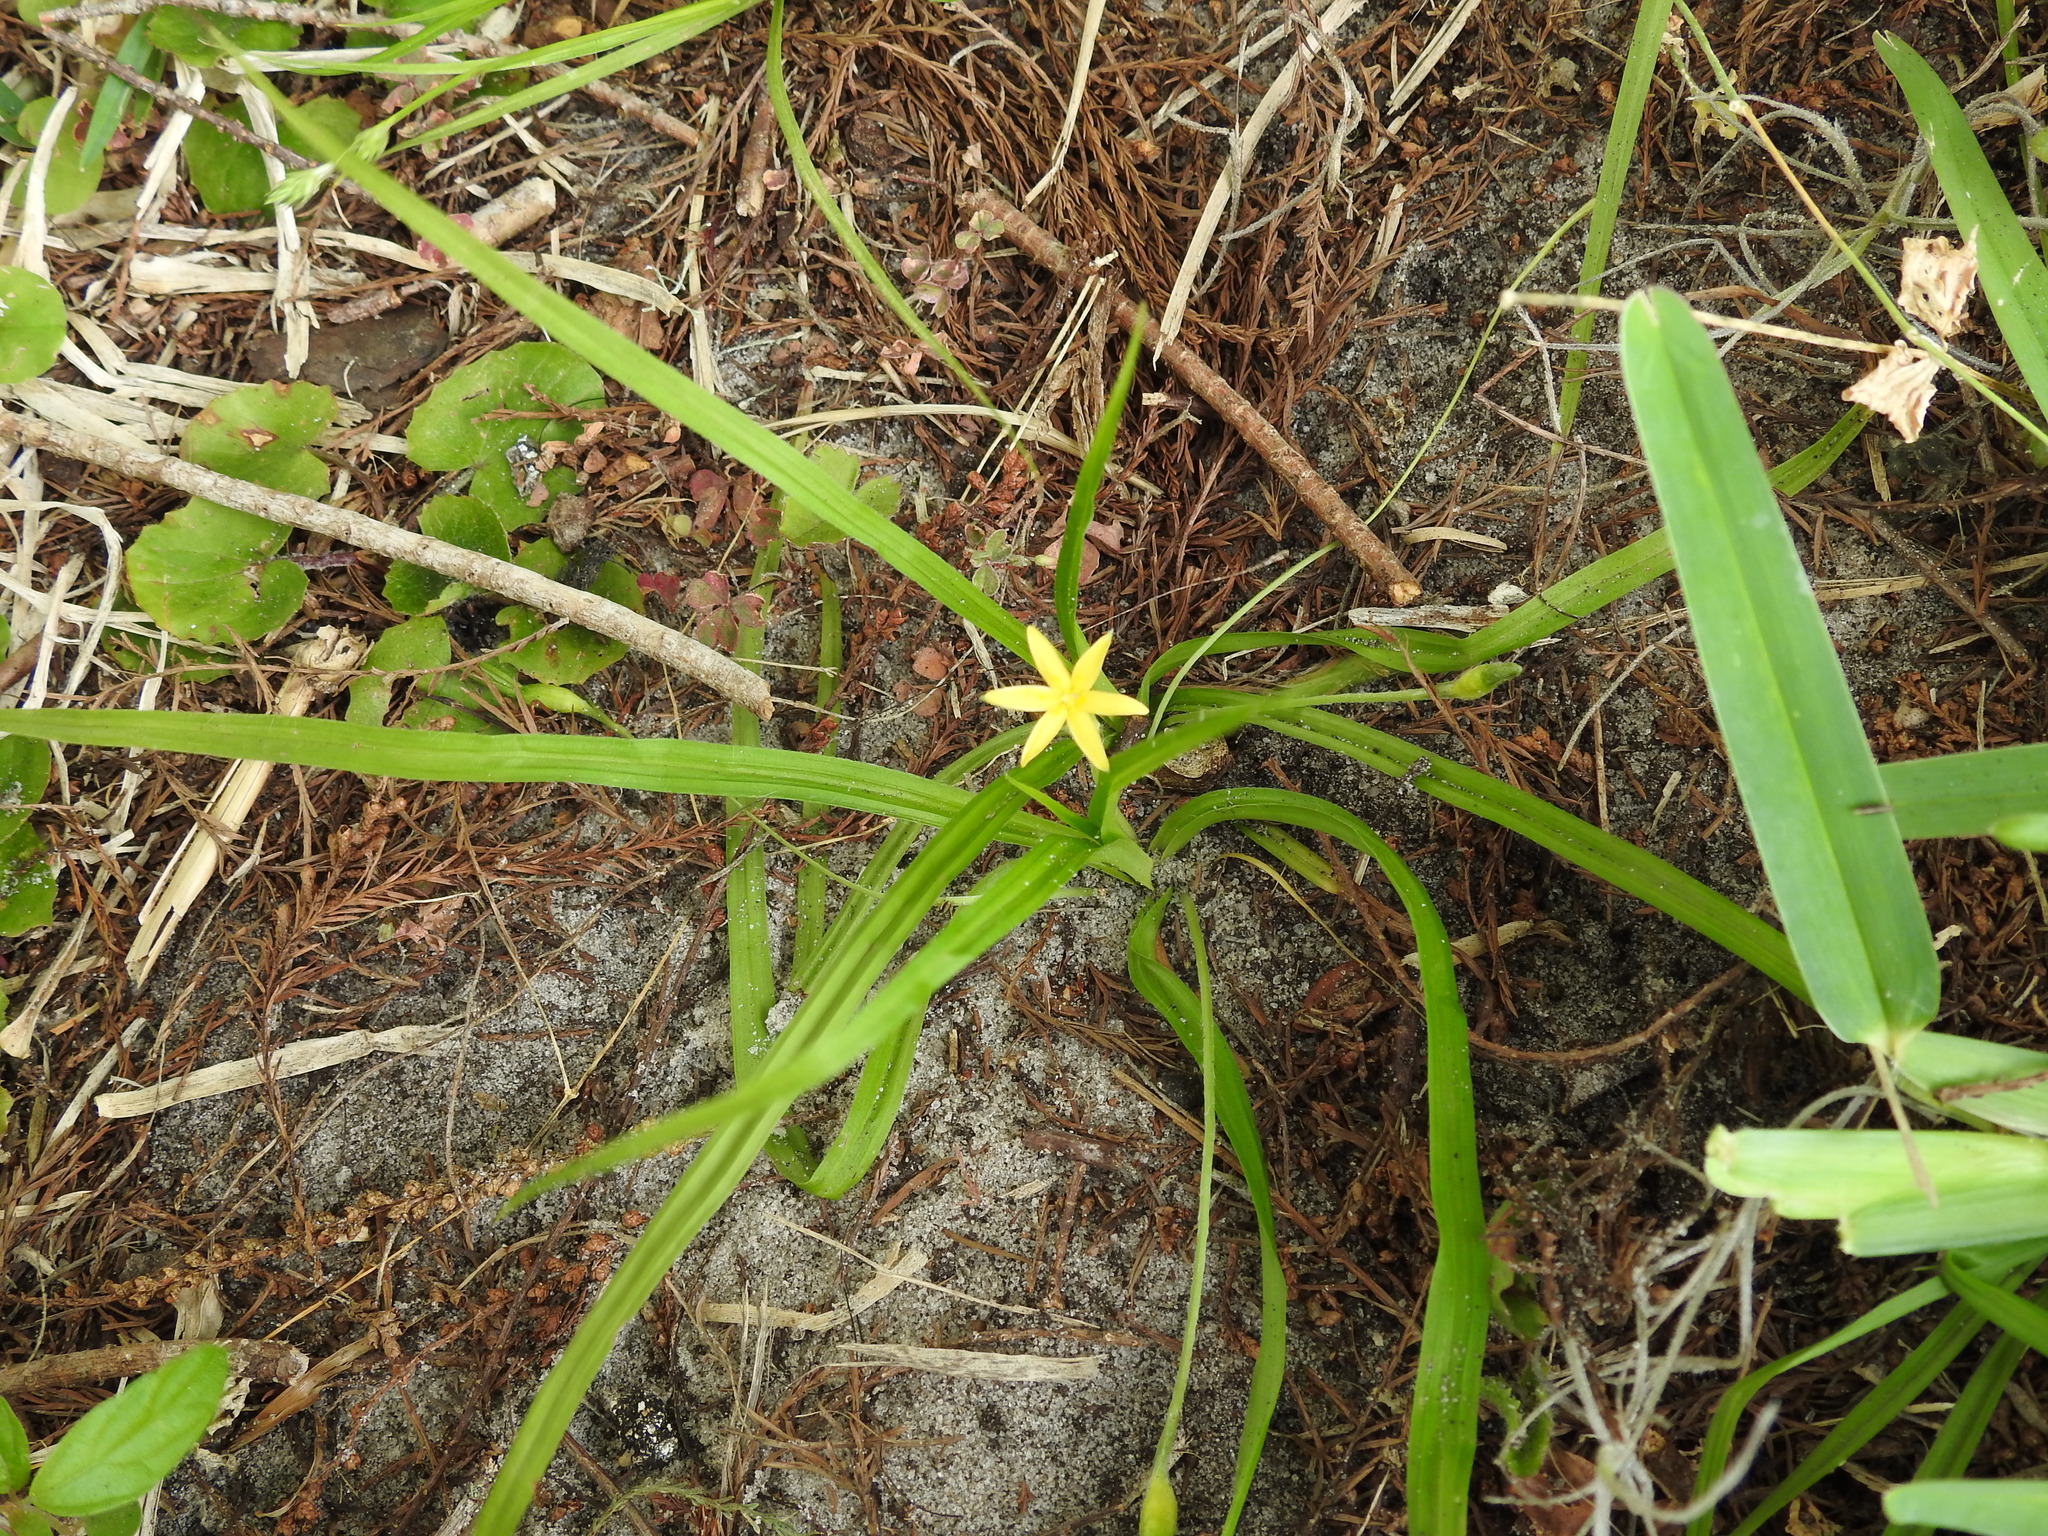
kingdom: Plantae
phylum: Tracheophyta
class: Liliopsida
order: Asparagales
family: Hypoxidaceae
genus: Hypoxis
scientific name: Hypoxis curtissii
